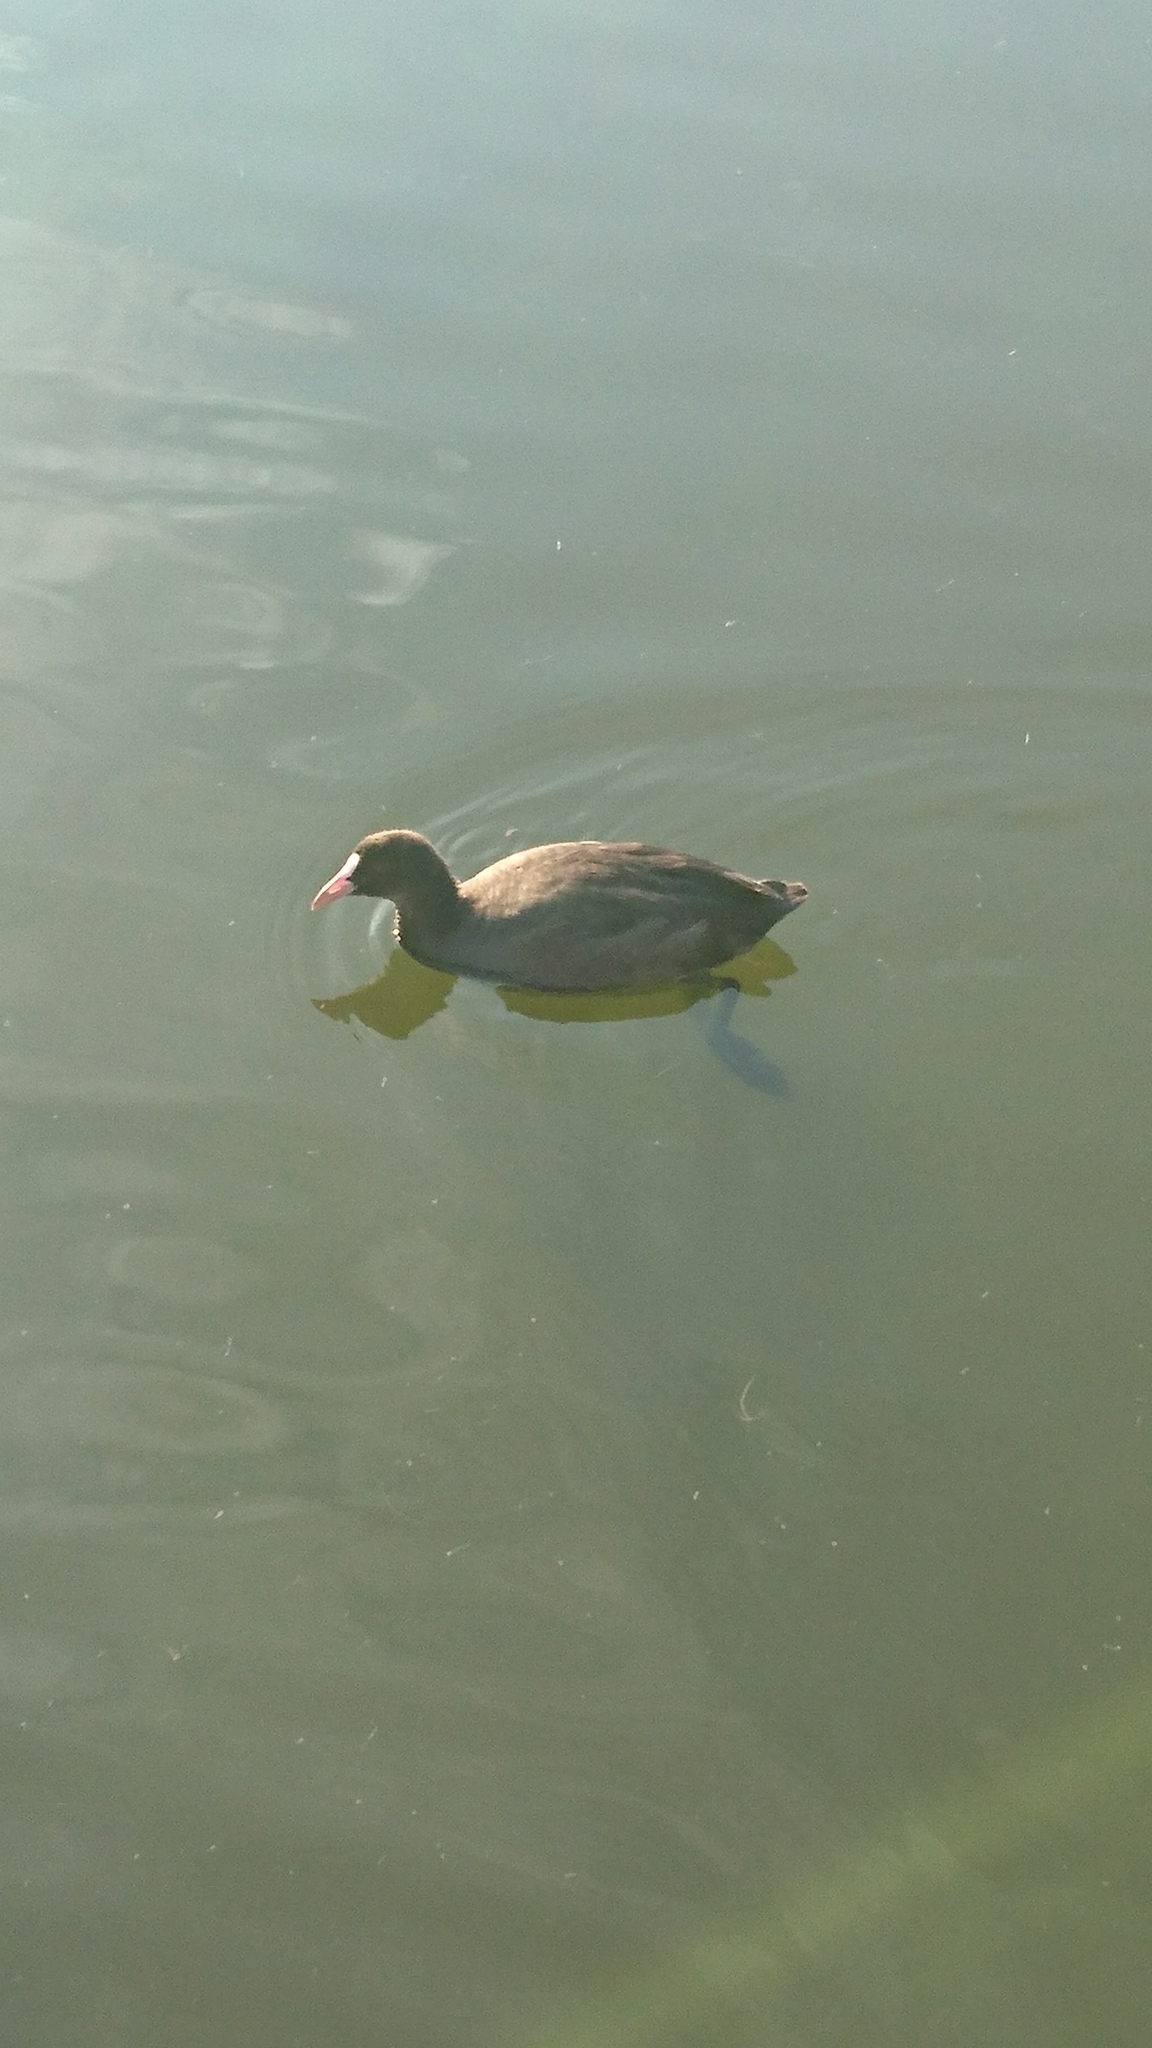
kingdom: Animalia
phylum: Chordata
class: Aves
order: Gruiformes
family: Rallidae
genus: Fulica
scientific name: Fulica atra
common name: Eurasian coot
